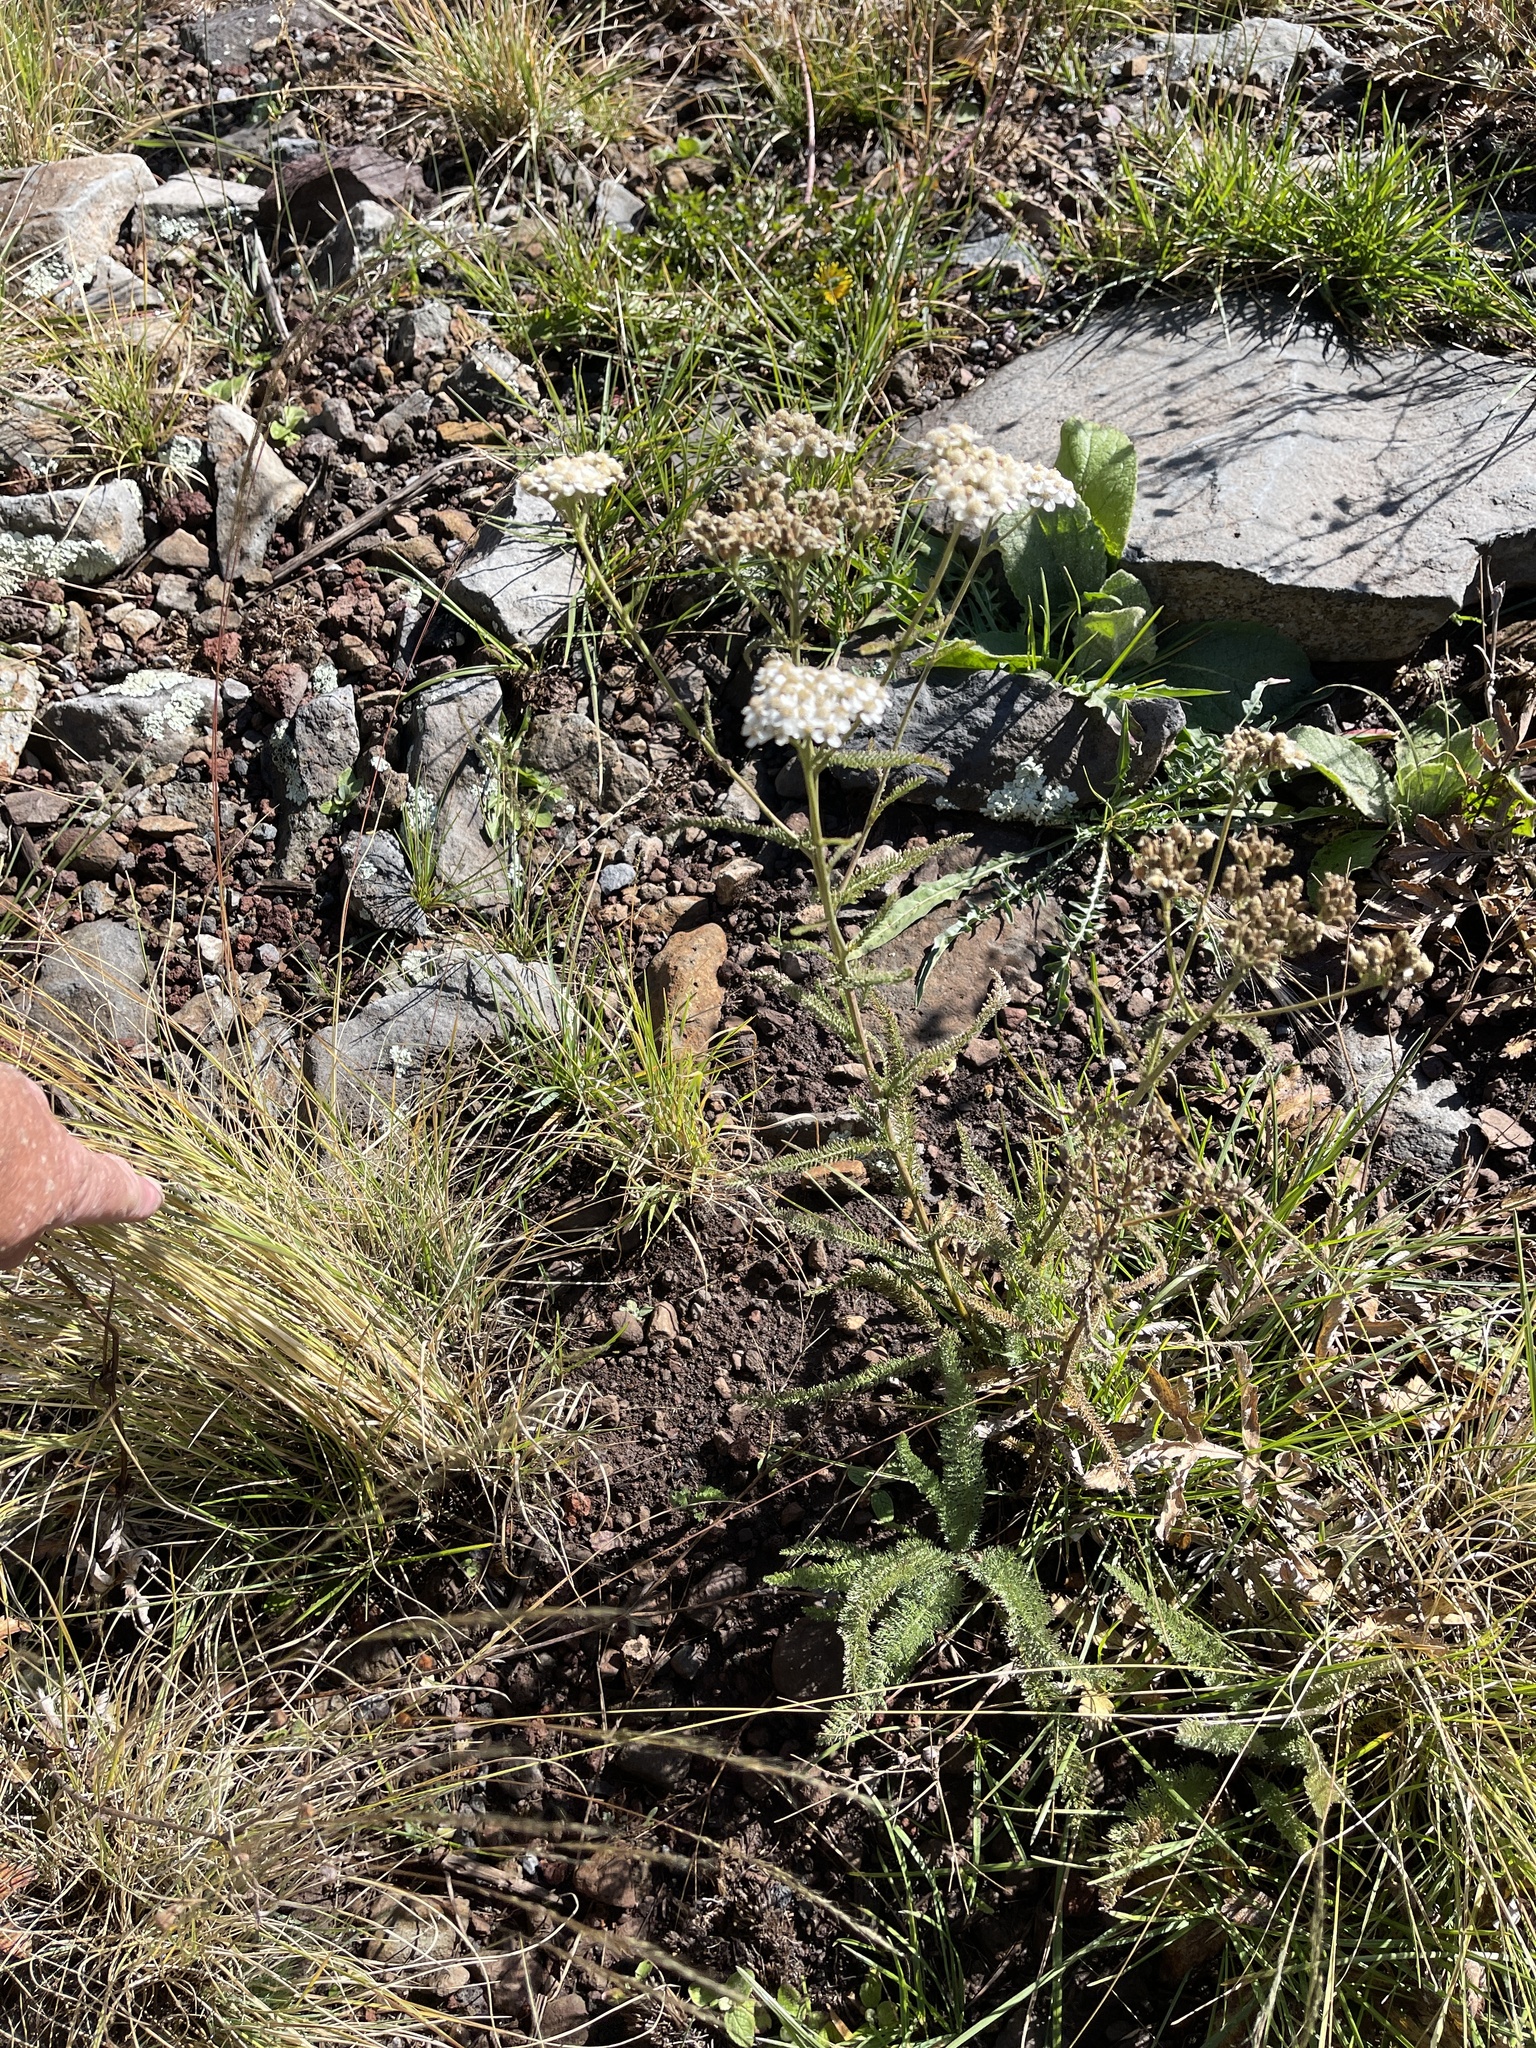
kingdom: Plantae
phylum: Tracheophyta
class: Magnoliopsida
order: Asterales
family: Asteraceae
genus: Achillea
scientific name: Achillea millefolium
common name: Yarrow
